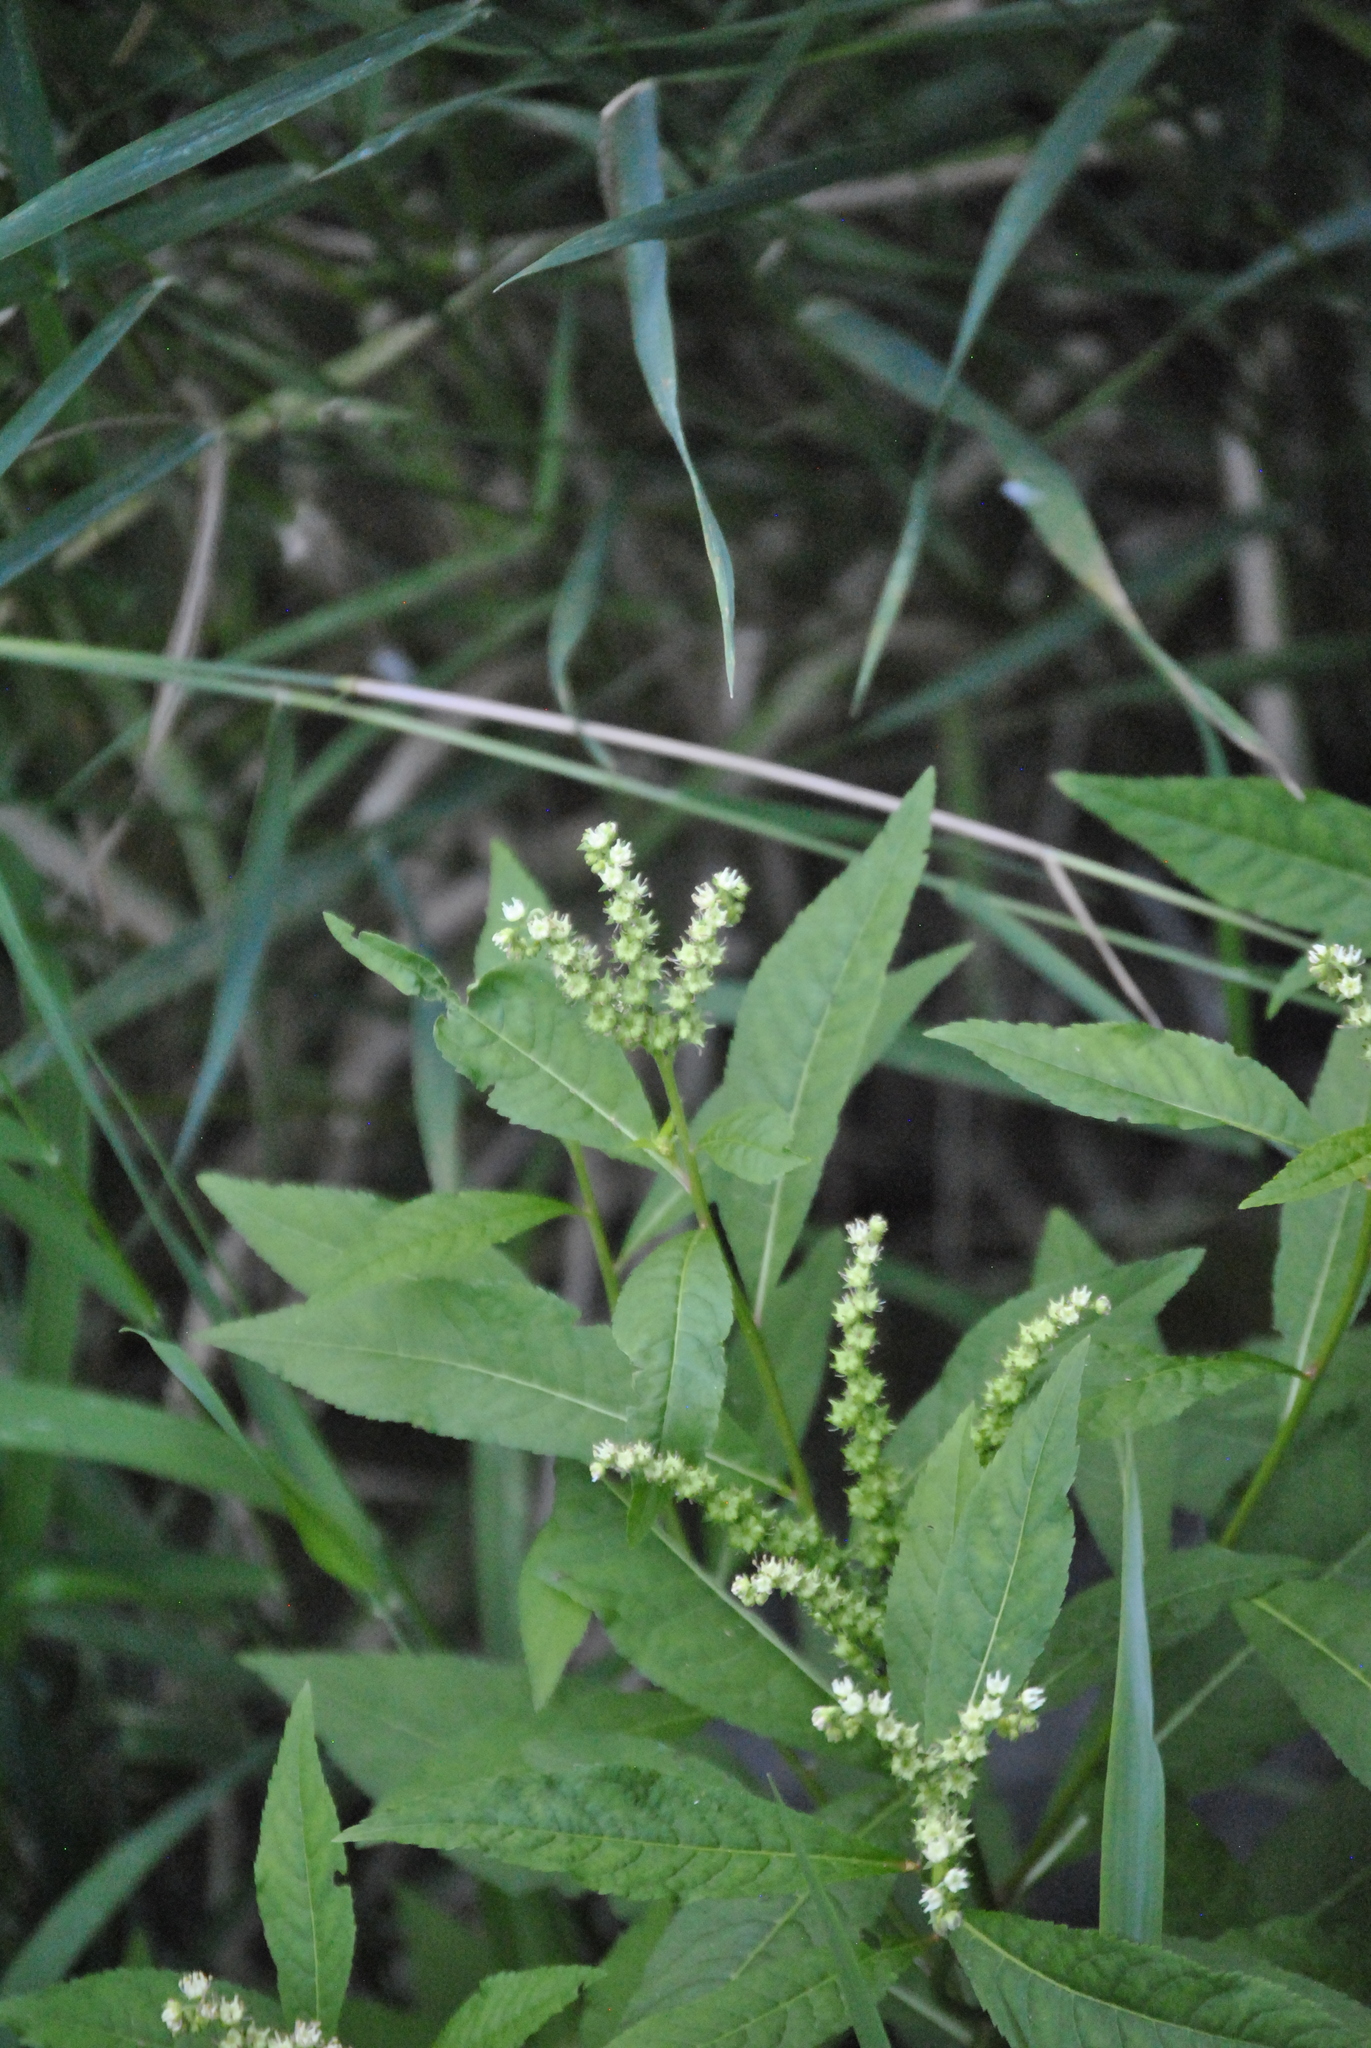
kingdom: Plantae
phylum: Tracheophyta
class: Magnoliopsida
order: Saxifragales
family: Penthoraceae
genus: Penthorum
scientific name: Penthorum sedoides
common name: Ditch stonecrop
